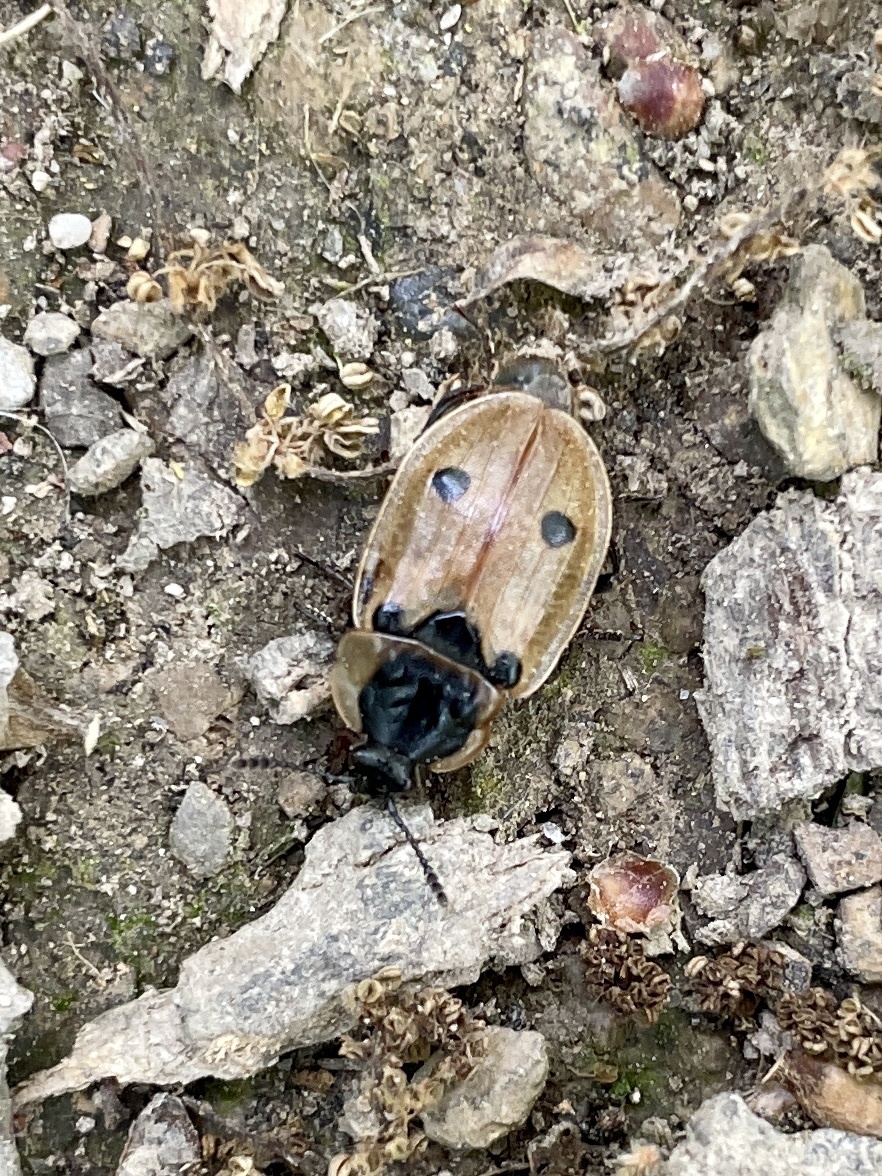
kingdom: Animalia
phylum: Arthropoda
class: Insecta
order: Coleoptera
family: Staphylinidae
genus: Dendroxena
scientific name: Dendroxena quadrimaculata
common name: Carrion beetle
